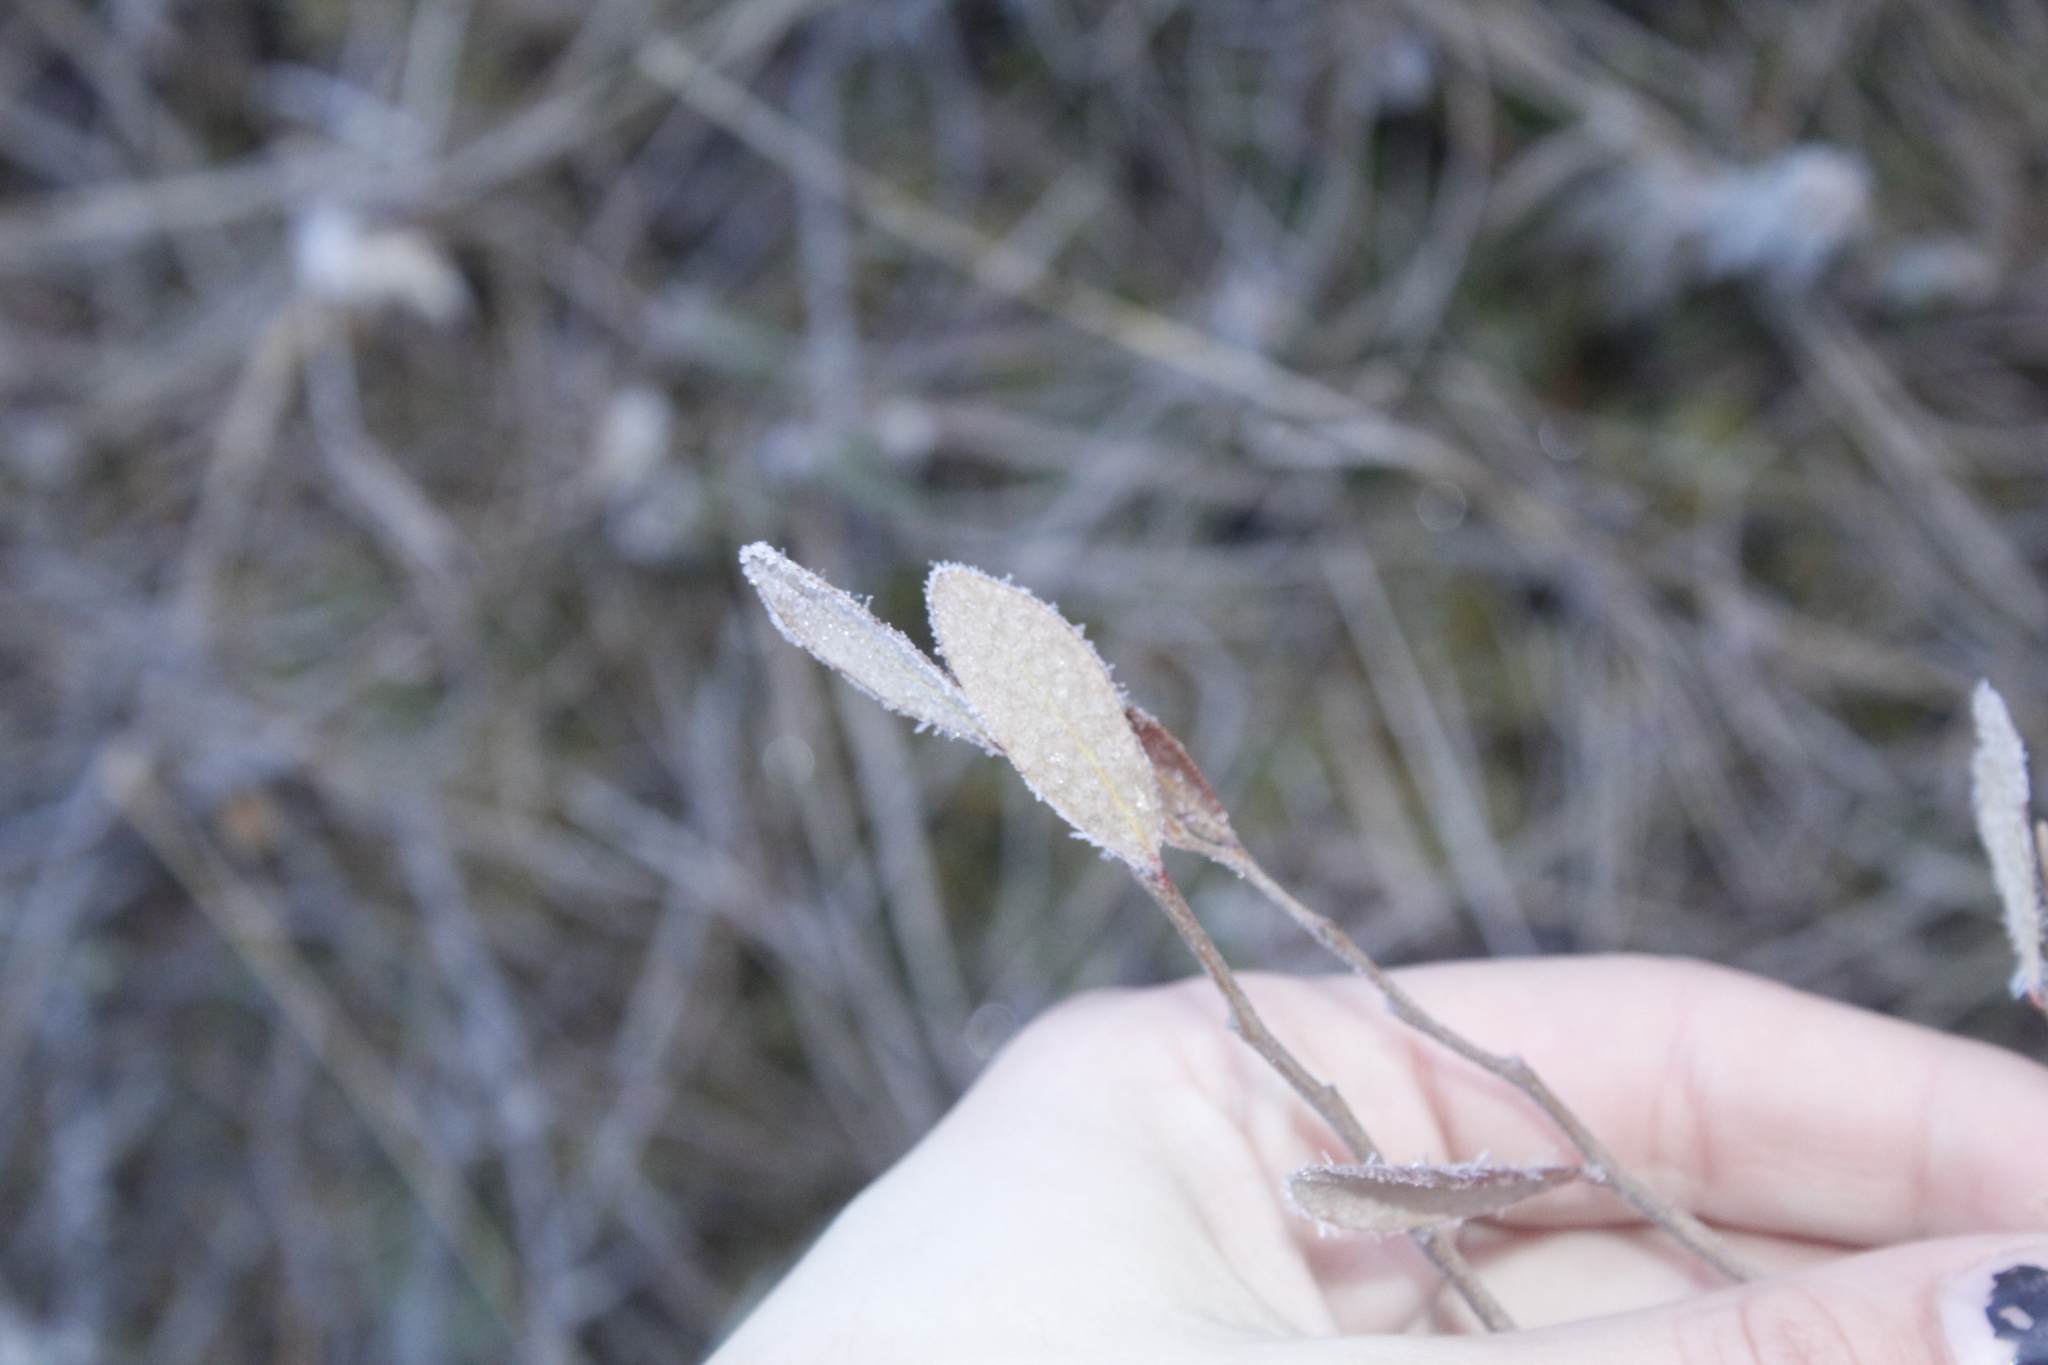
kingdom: Plantae
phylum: Tracheophyta
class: Magnoliopsida
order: Ericales
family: Ericaceae
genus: Chamaedaphne
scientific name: Chamaedaphne calyculata
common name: Leatherleaf
